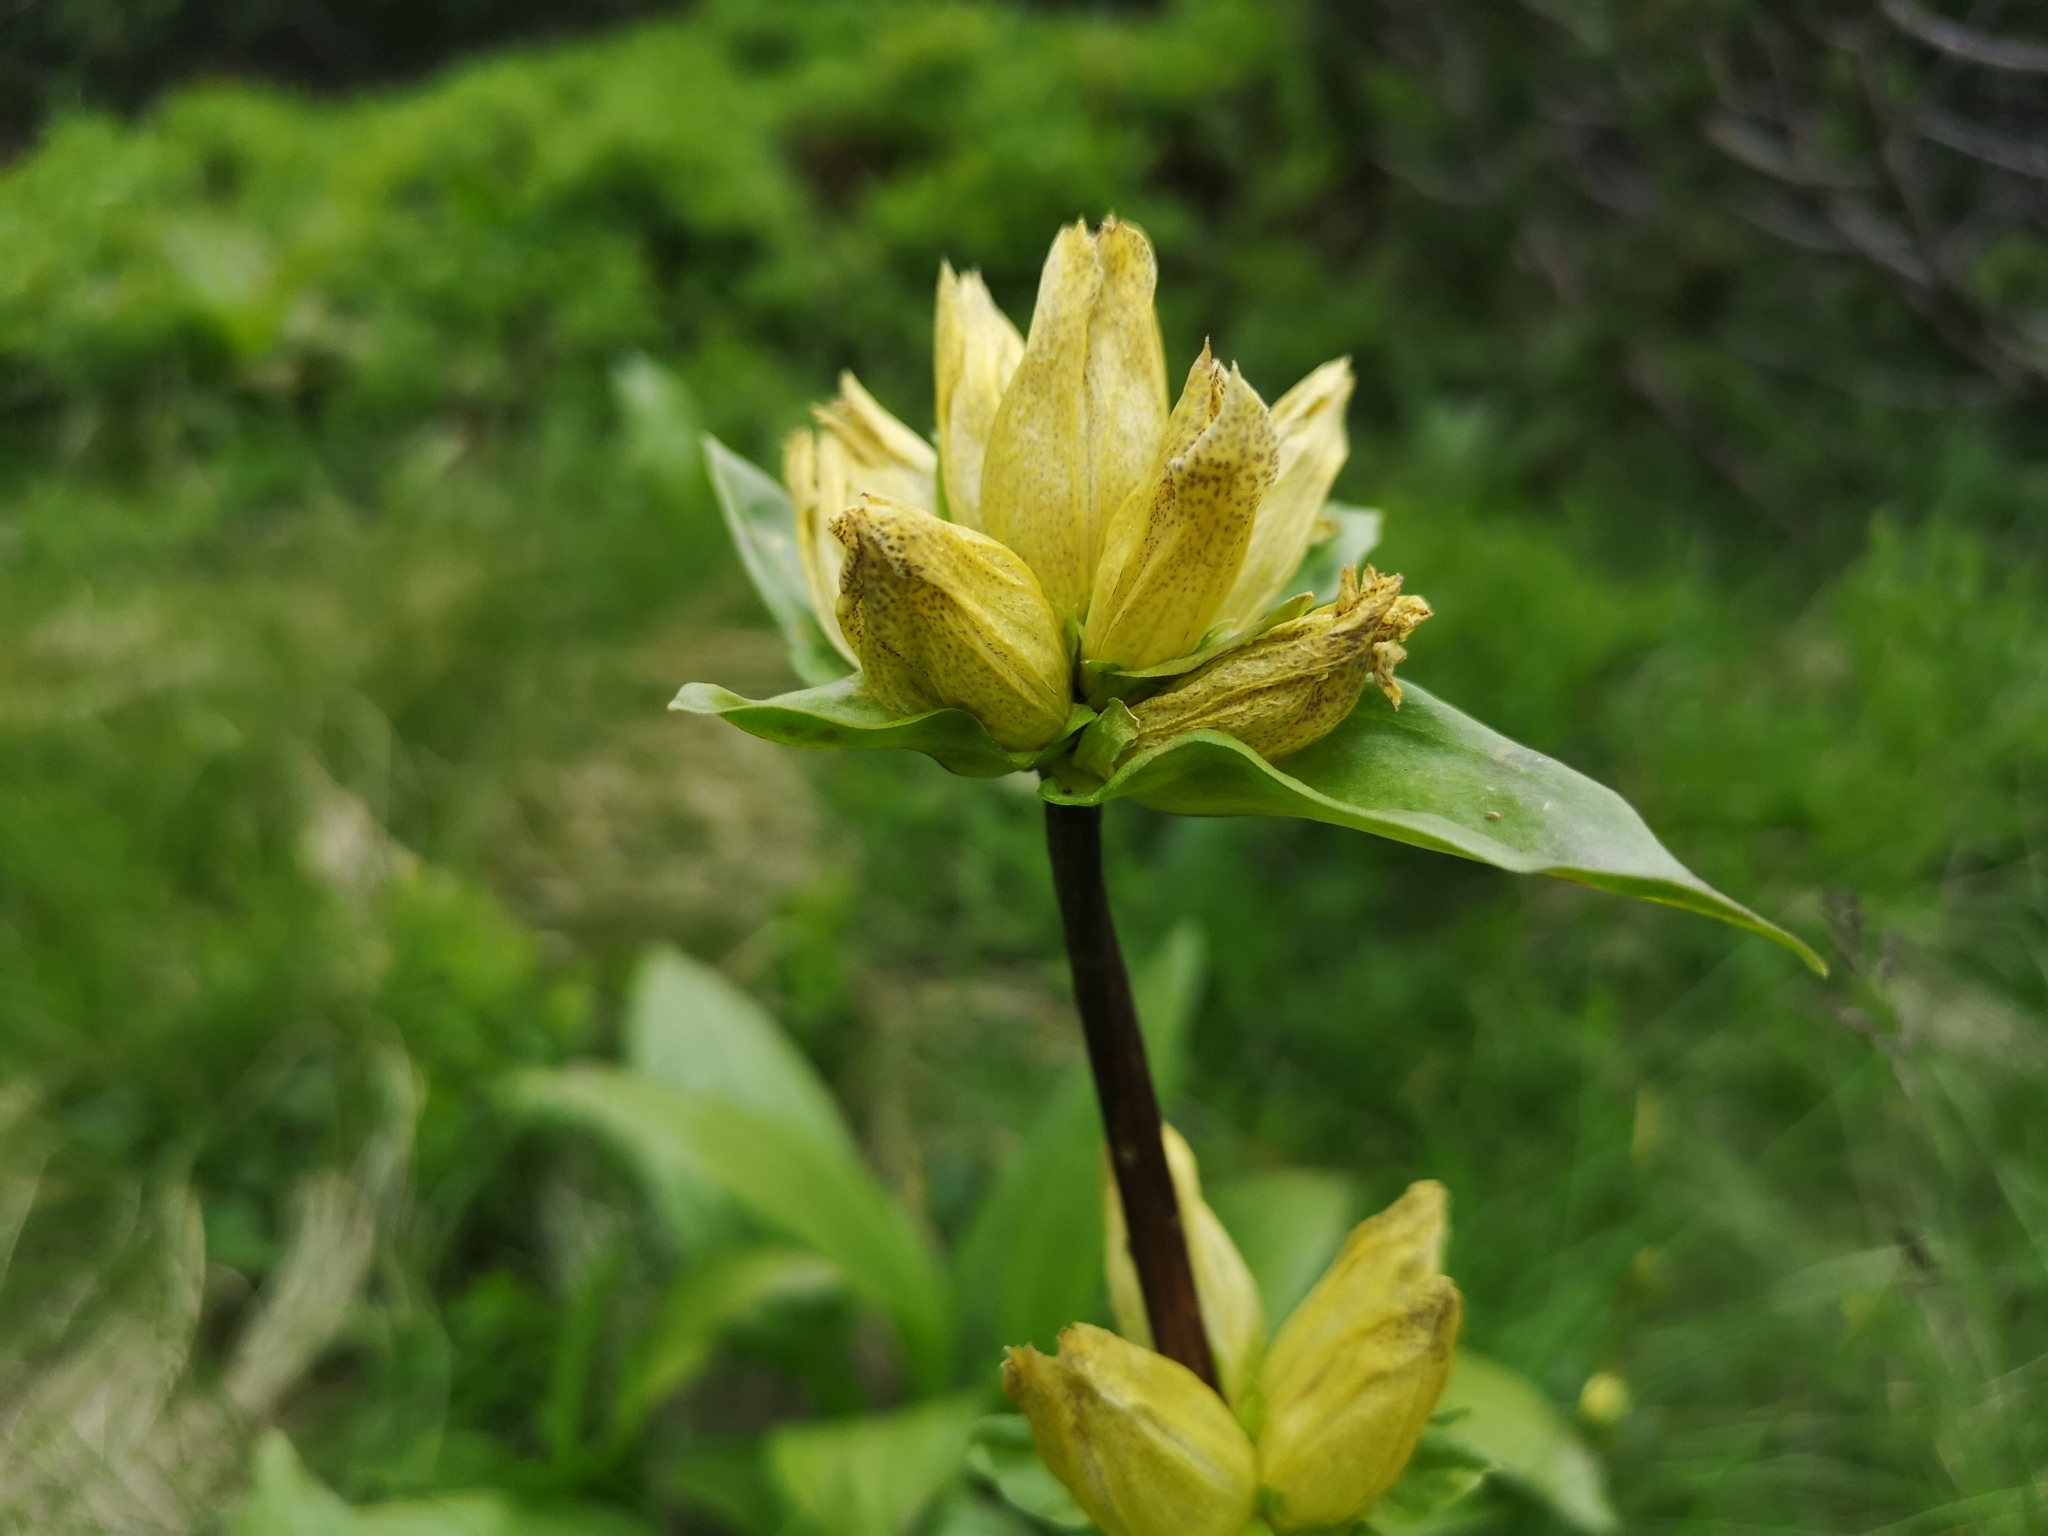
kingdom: Plantae
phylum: Tracheophyta
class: Magnoliopsida
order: Gentianales
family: Gentianaceae
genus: Gentiana
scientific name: Gentiana punctata
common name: Spotted gentian
